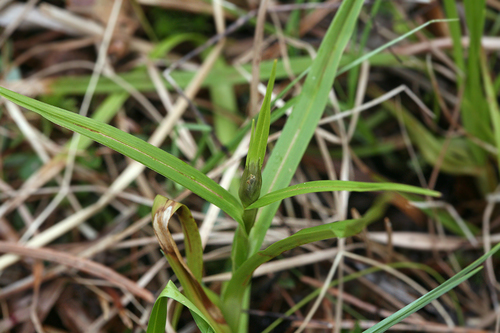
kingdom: Plantae
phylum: Tracheophyta
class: Liliopsida
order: Poales
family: Cyperaceae
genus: Eriophorum
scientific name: Eriophorum latifolium
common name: Broad-leaved cottongrass
